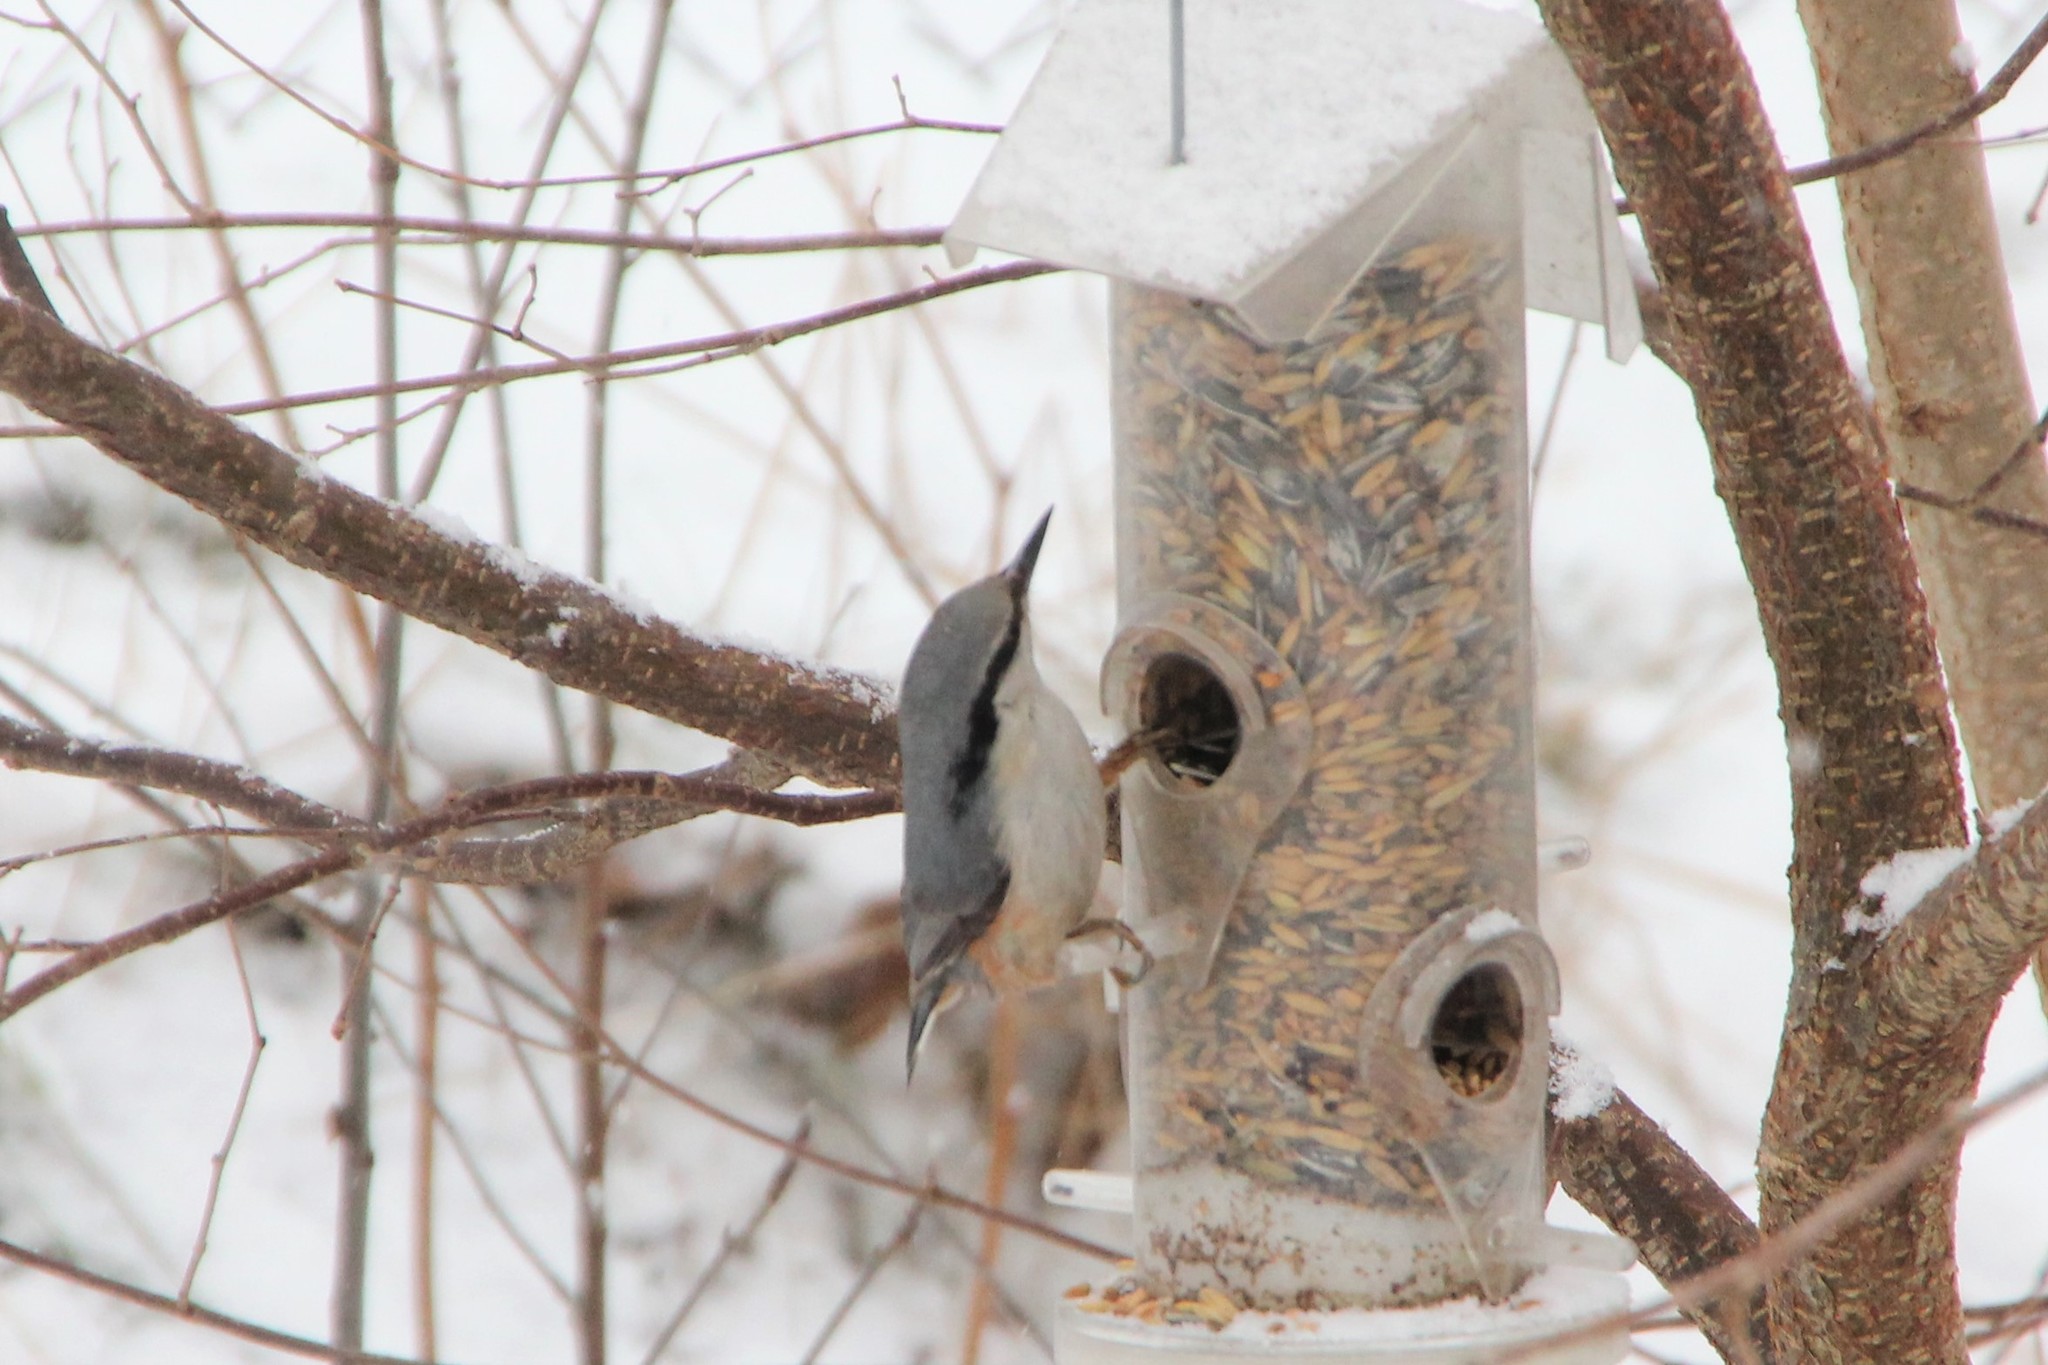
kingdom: Animalia
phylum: Chordata
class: Aves
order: Passeriformes
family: Sittidae
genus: Sitta
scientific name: Sitta europaea
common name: Eurasian nuthatch
